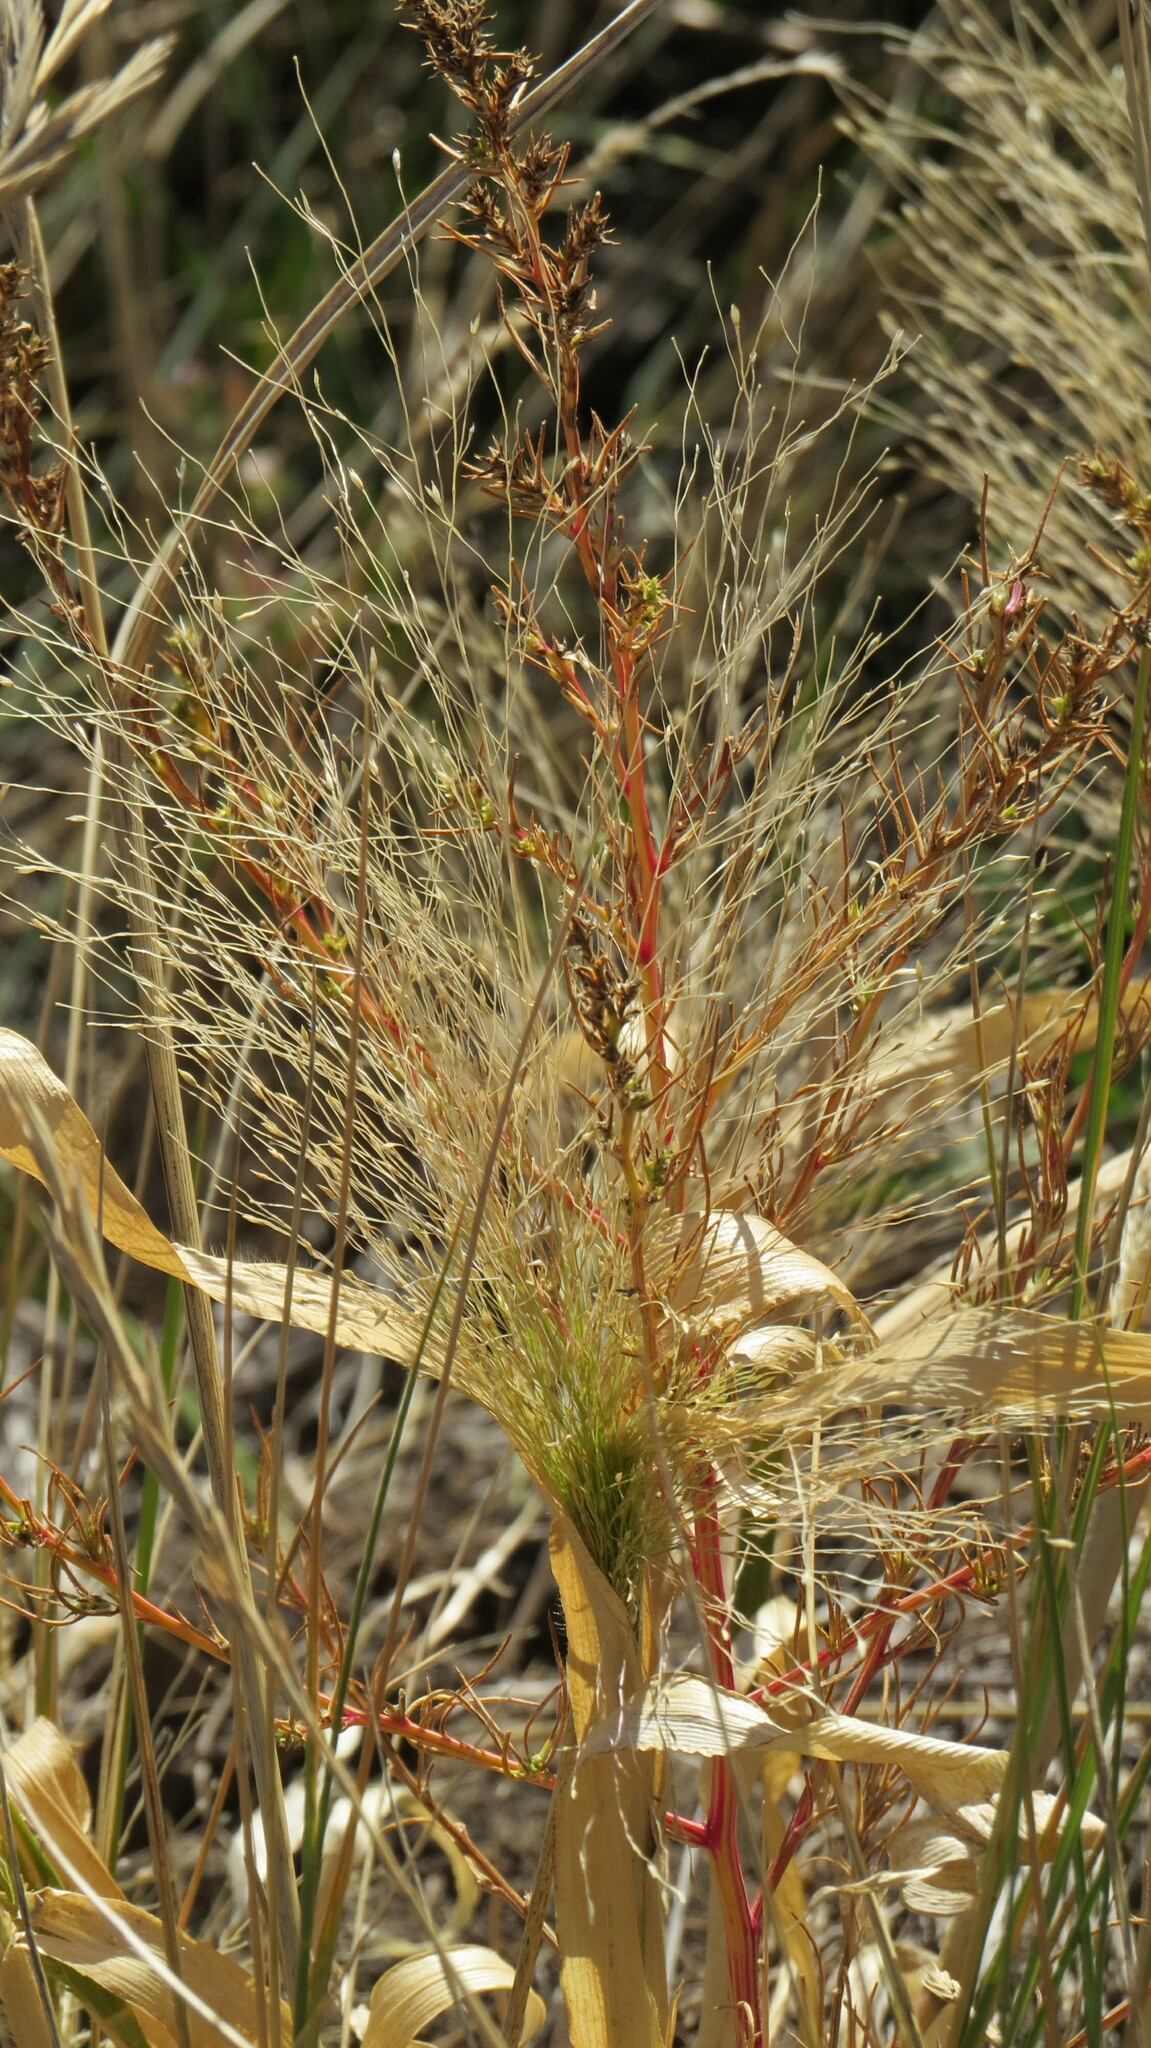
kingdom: Plantae
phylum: Tracheophyta
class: Liliopsida
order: Poales
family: Poaceae
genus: Panicum
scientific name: Panicum capillare
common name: Witch-grass
